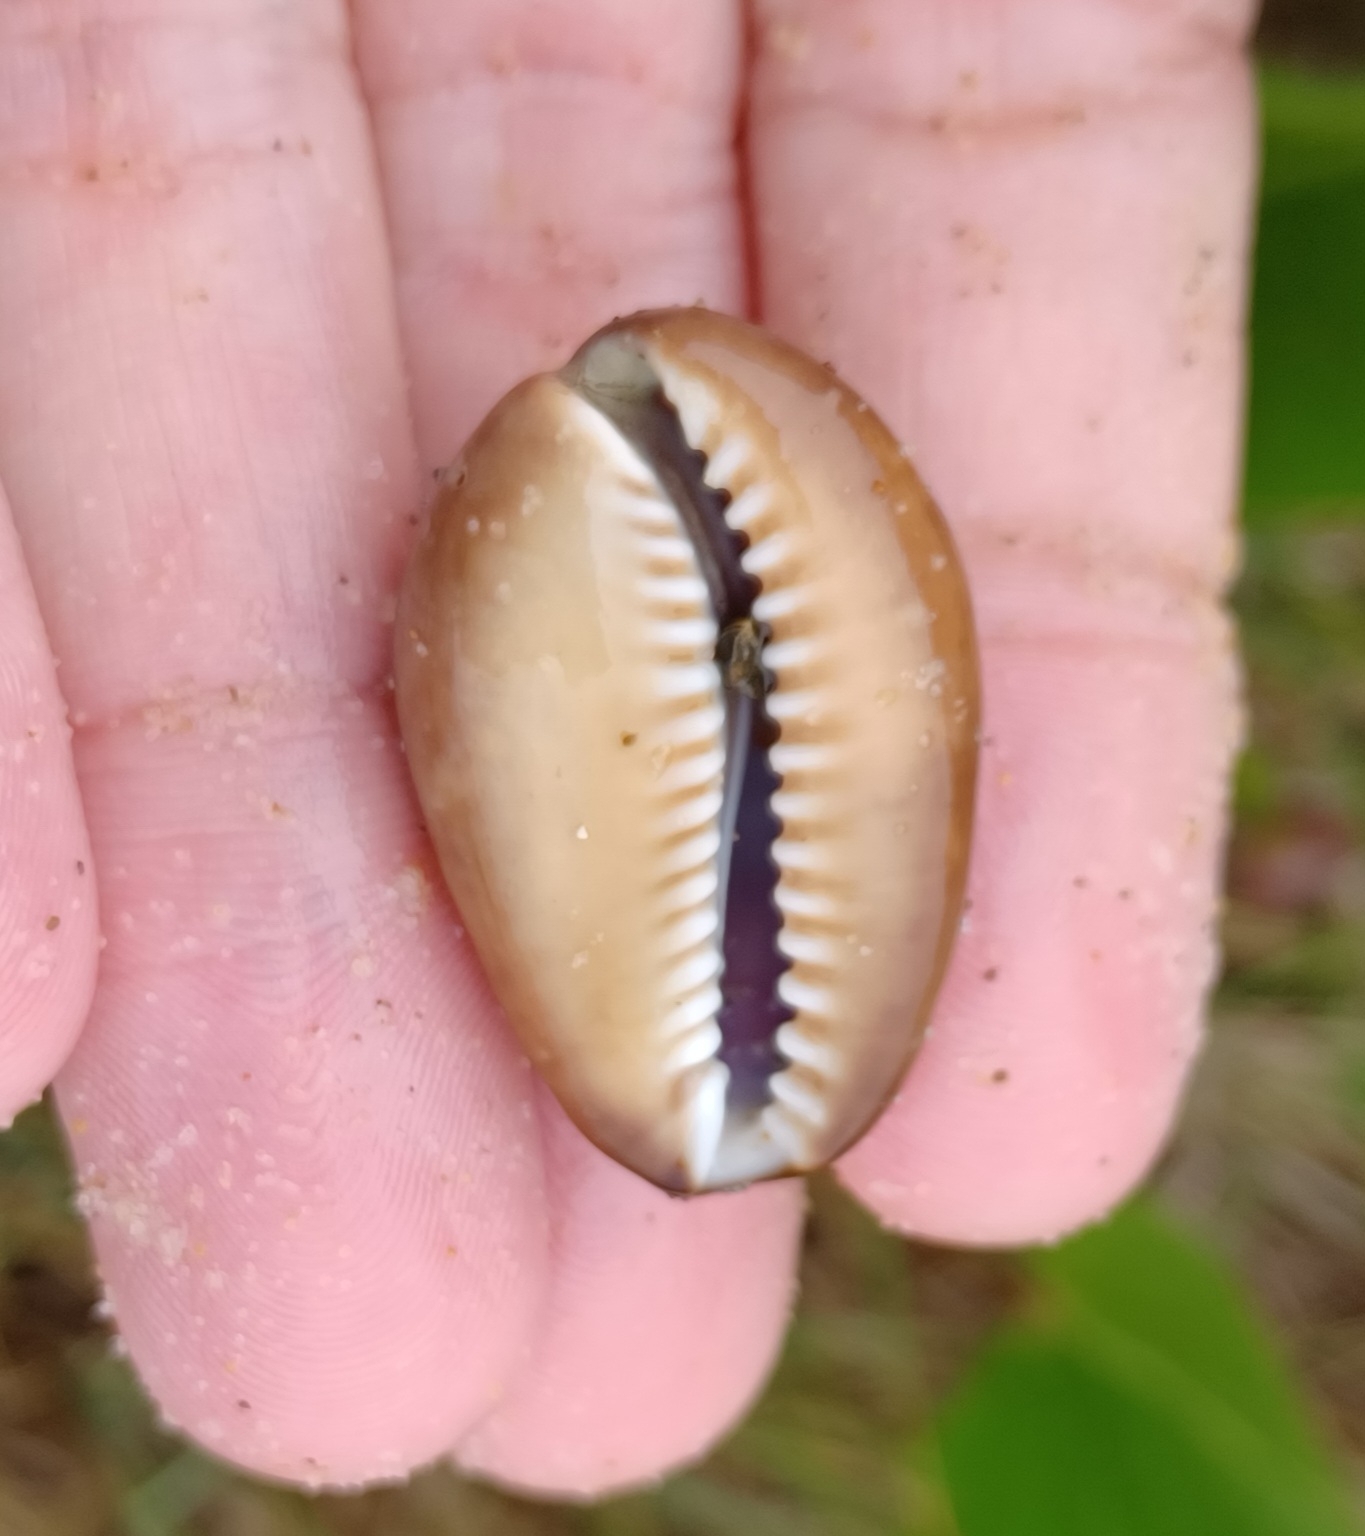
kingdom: Animalia
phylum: Mollusca
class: Gastropoda
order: Littorinimorpha
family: Cypraeidae
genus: Monetaria
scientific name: Monetaria caputserpentis
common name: Serpent's head cowrie
